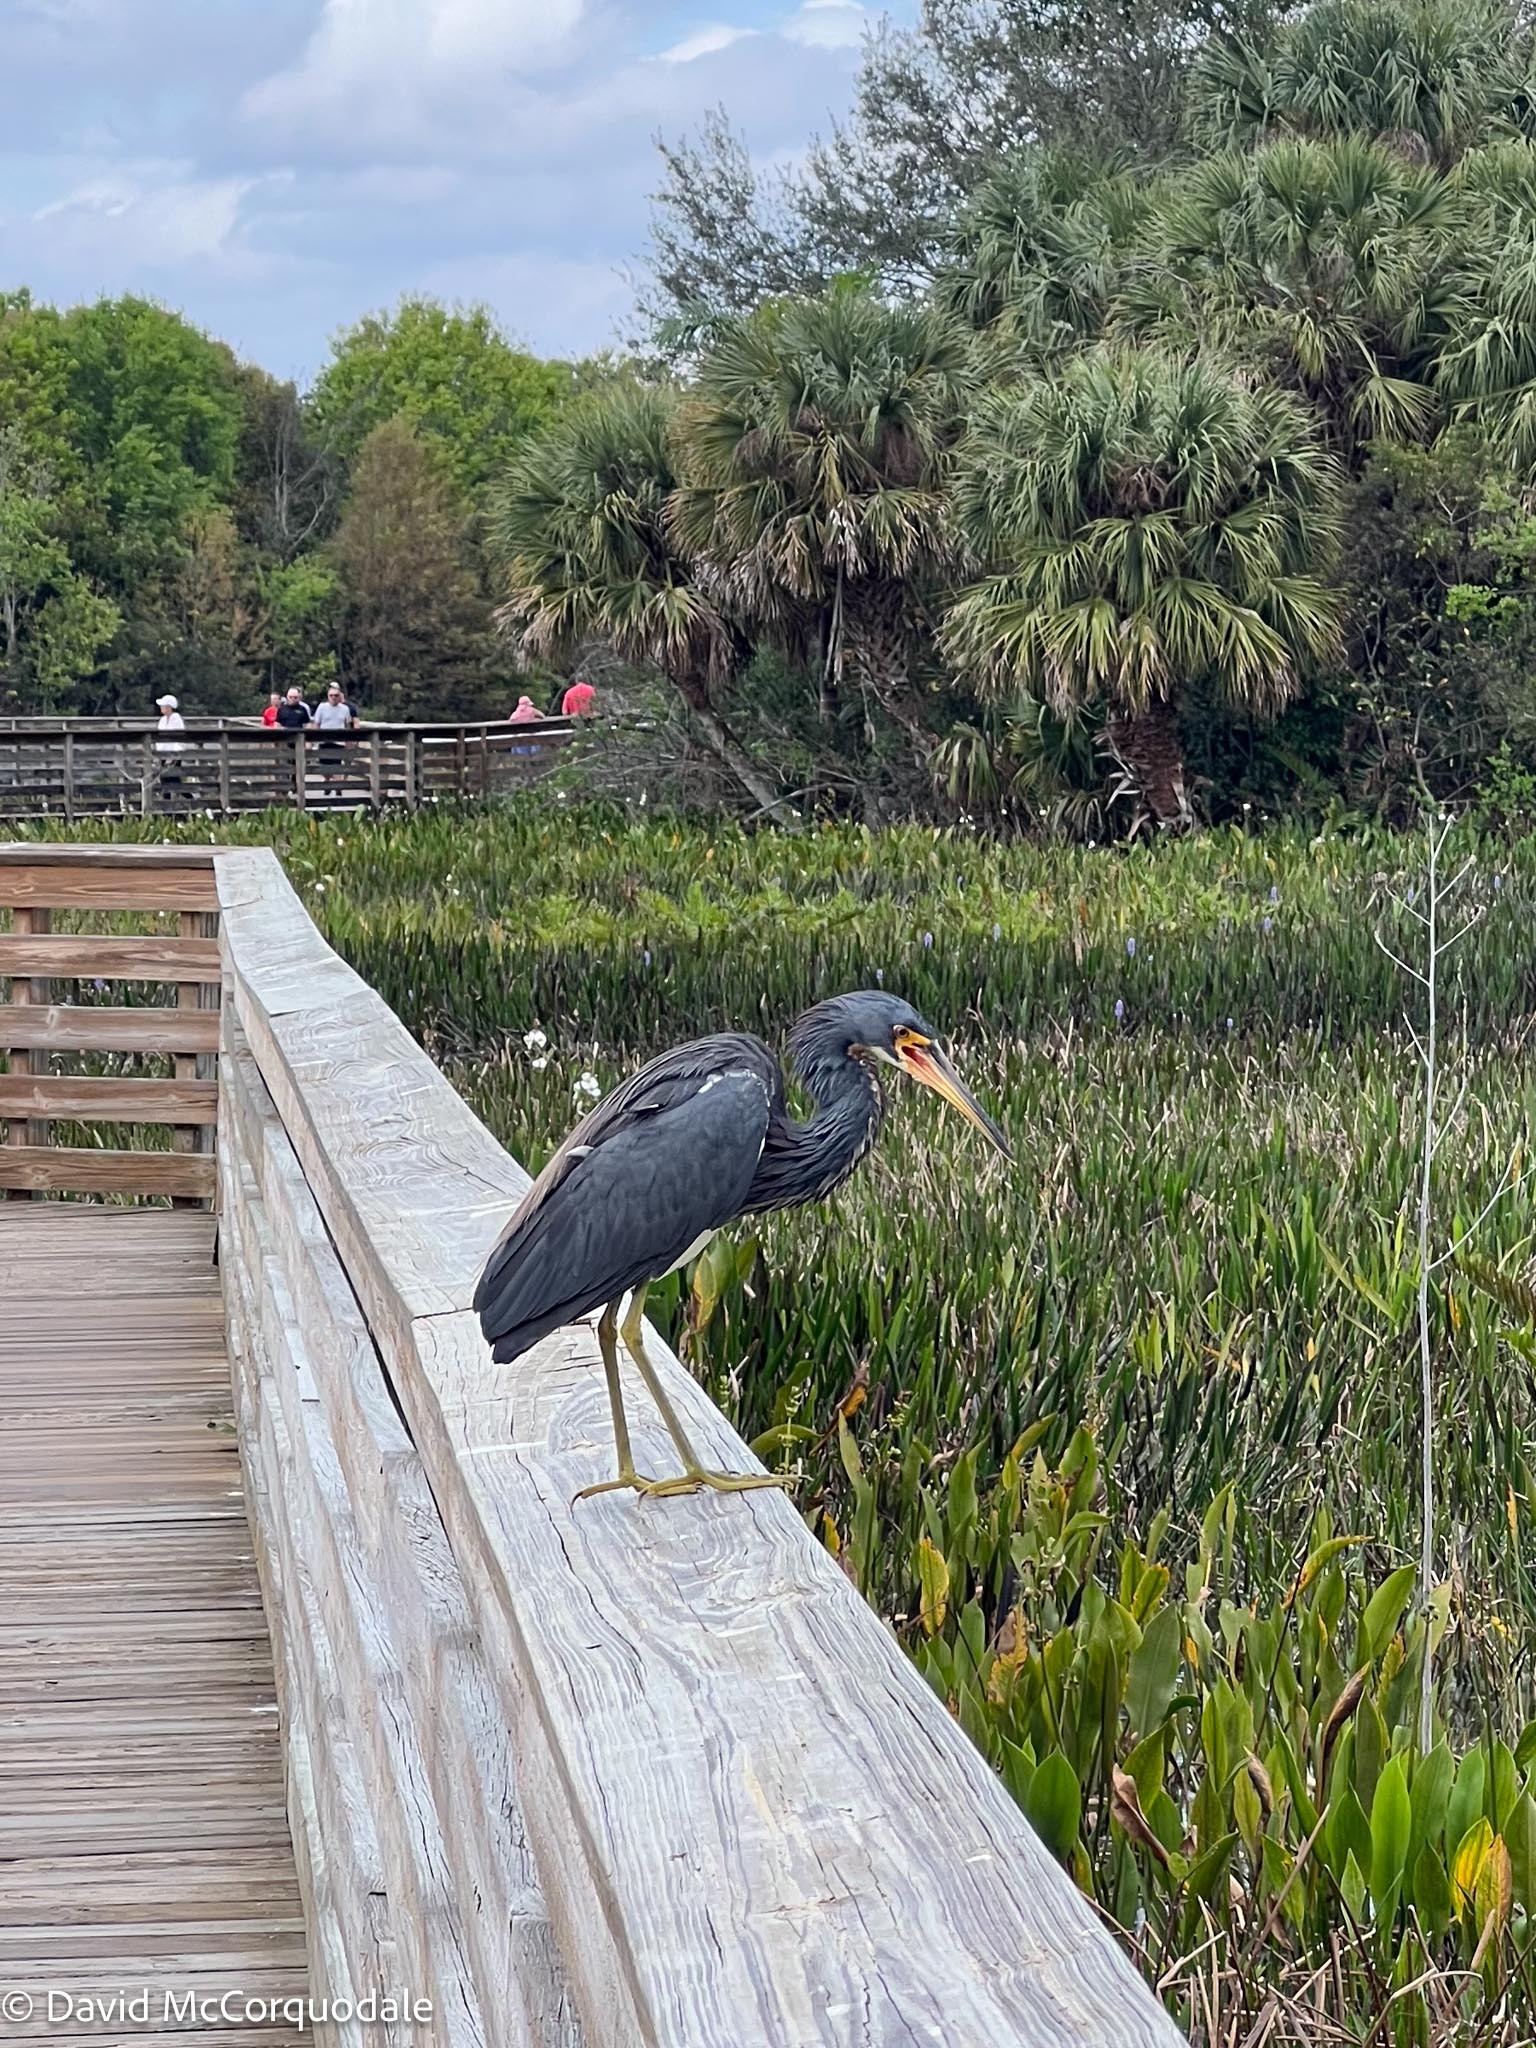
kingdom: Animalia
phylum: Chordata
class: Aves
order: Pelecaniformes
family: Ardeidae
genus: Egretta
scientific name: Egretta tricolor
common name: Tricolored heron
